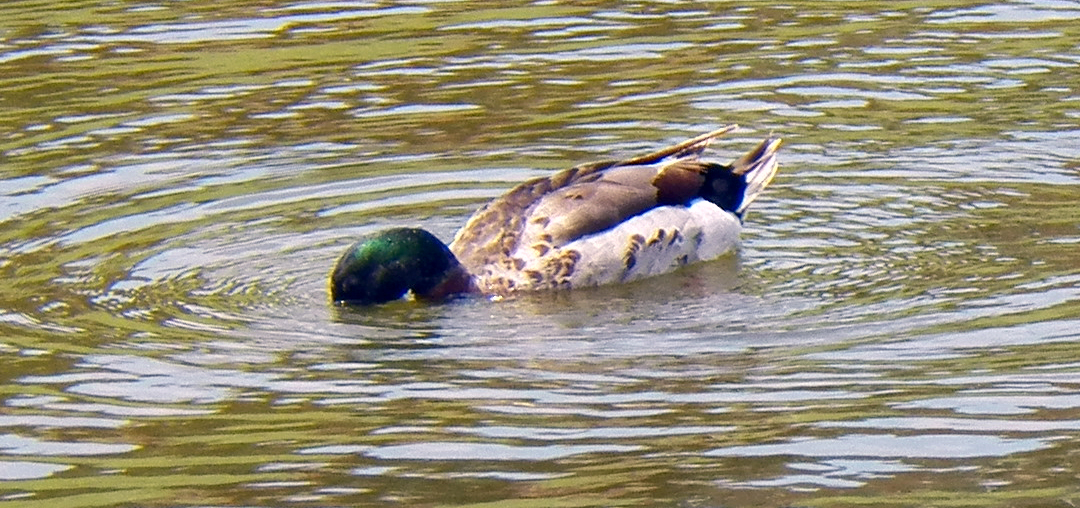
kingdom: Animalia
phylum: Chordata
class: Aves
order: Anseriformes
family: Anatidae
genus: Anas
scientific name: Anas platyrhynchos
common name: Mallard
